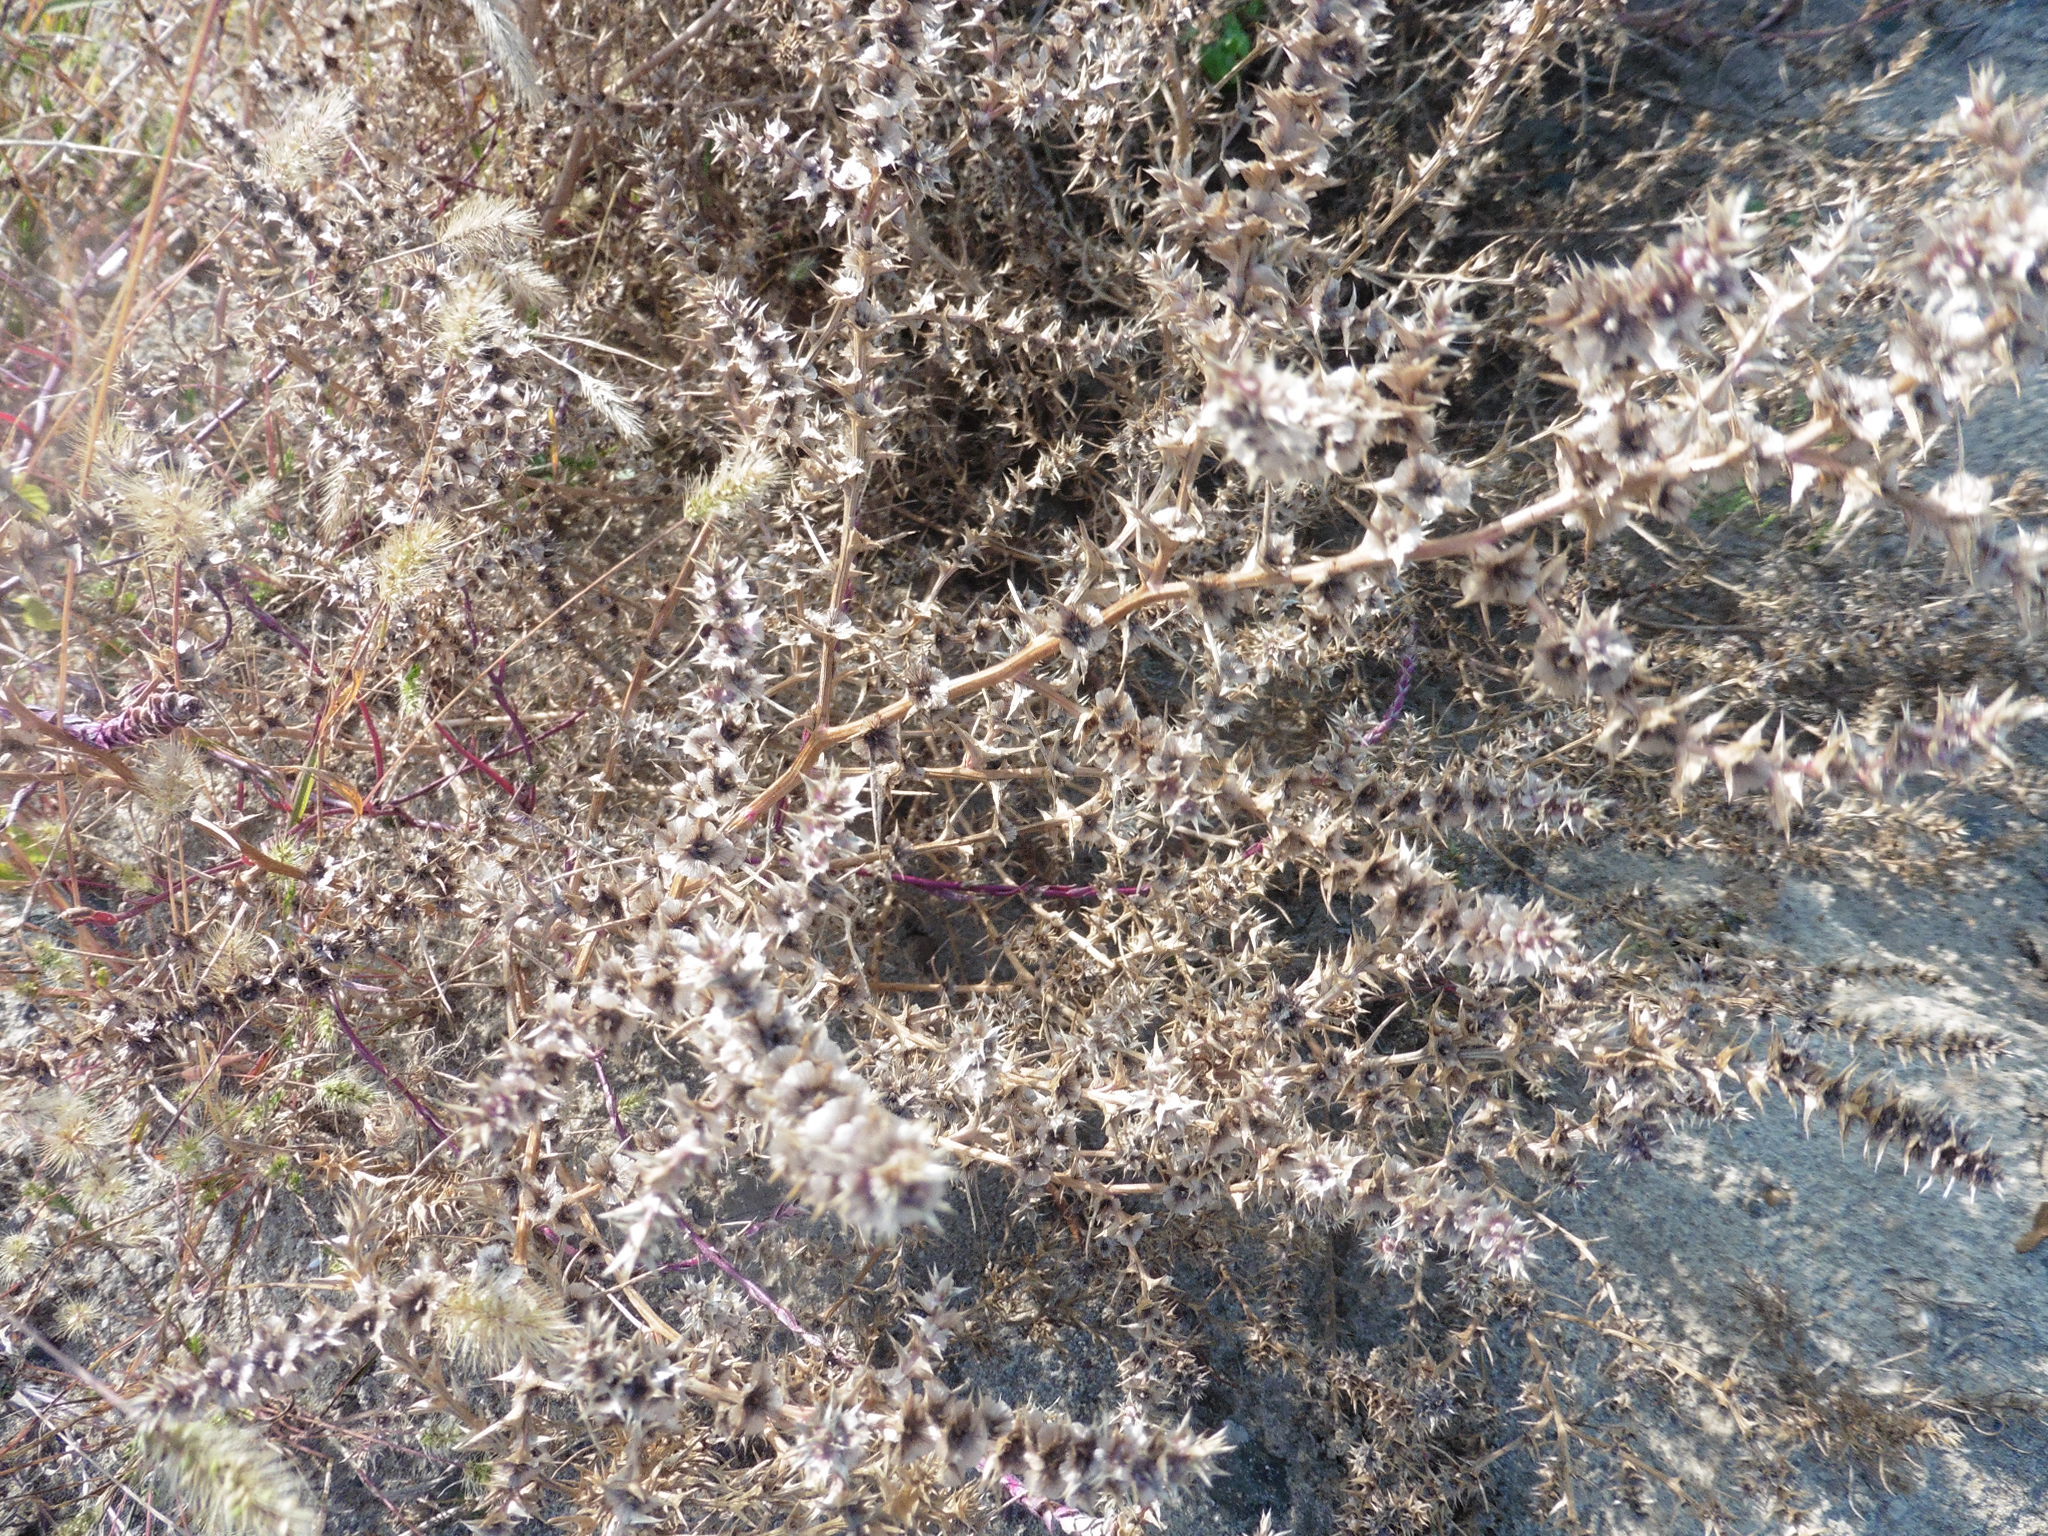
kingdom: Plantae
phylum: Tracheophyta
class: Magnoliopsida
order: Caryophyllales
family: Amaranthaceae
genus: Salsola
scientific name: Salsola tragus
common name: Prickly russian thistle
